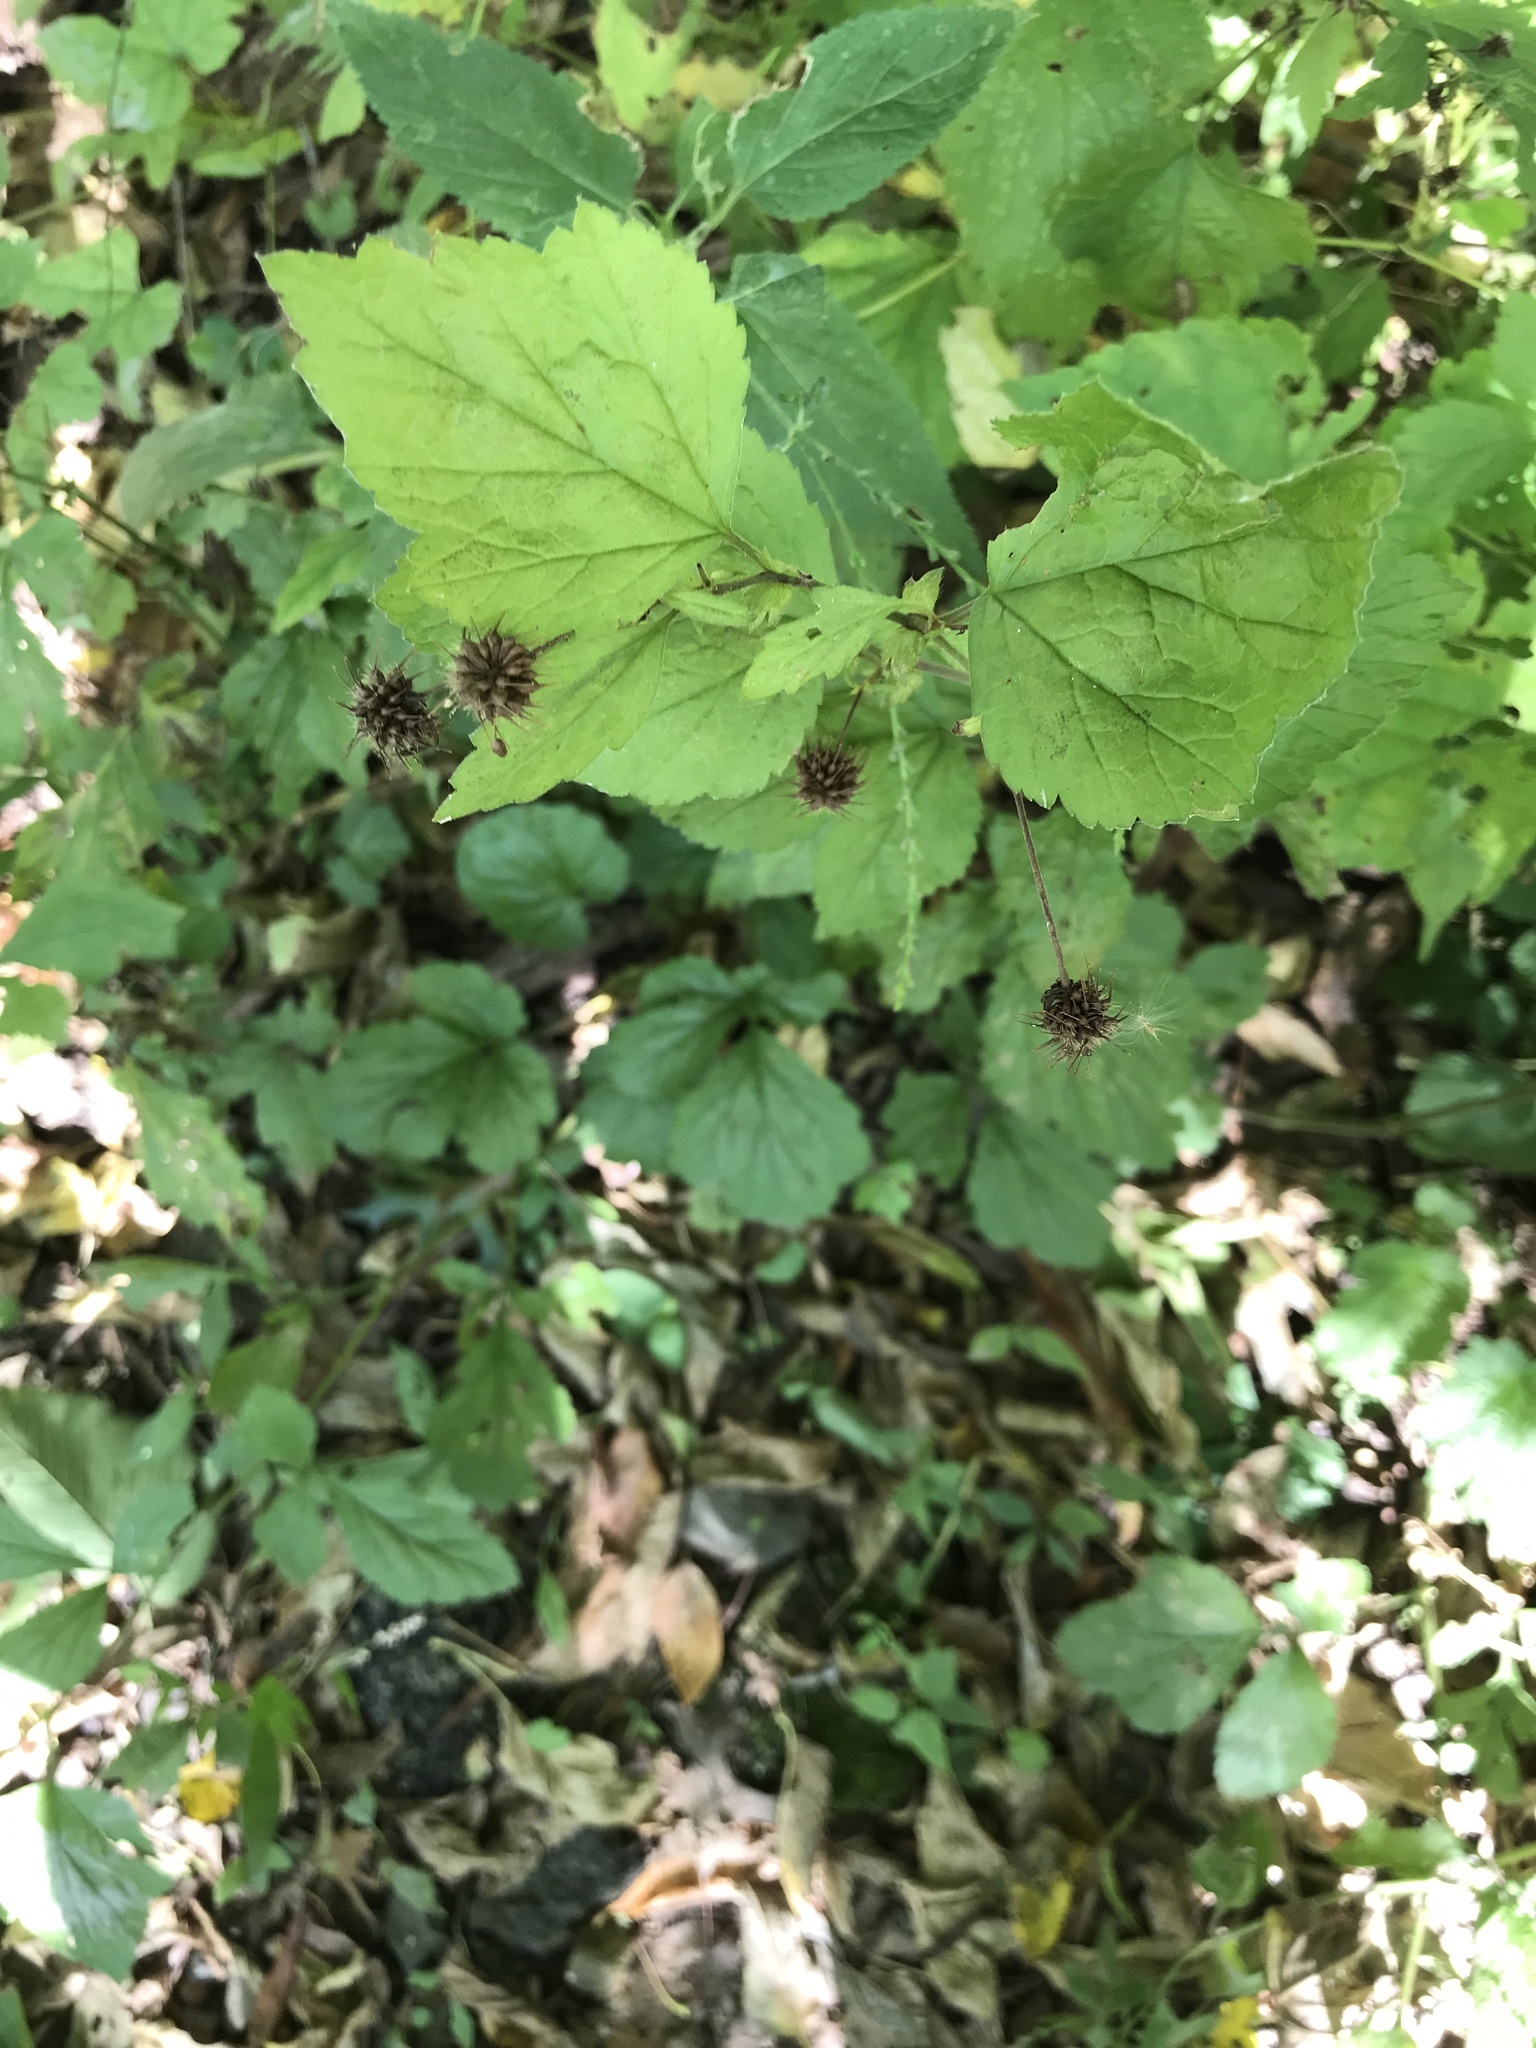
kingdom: Plantae
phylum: Tracheophyta
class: Magnoliopsida
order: Rosales
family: Rosaceae
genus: Geum
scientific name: Geum canadense
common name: White avens
